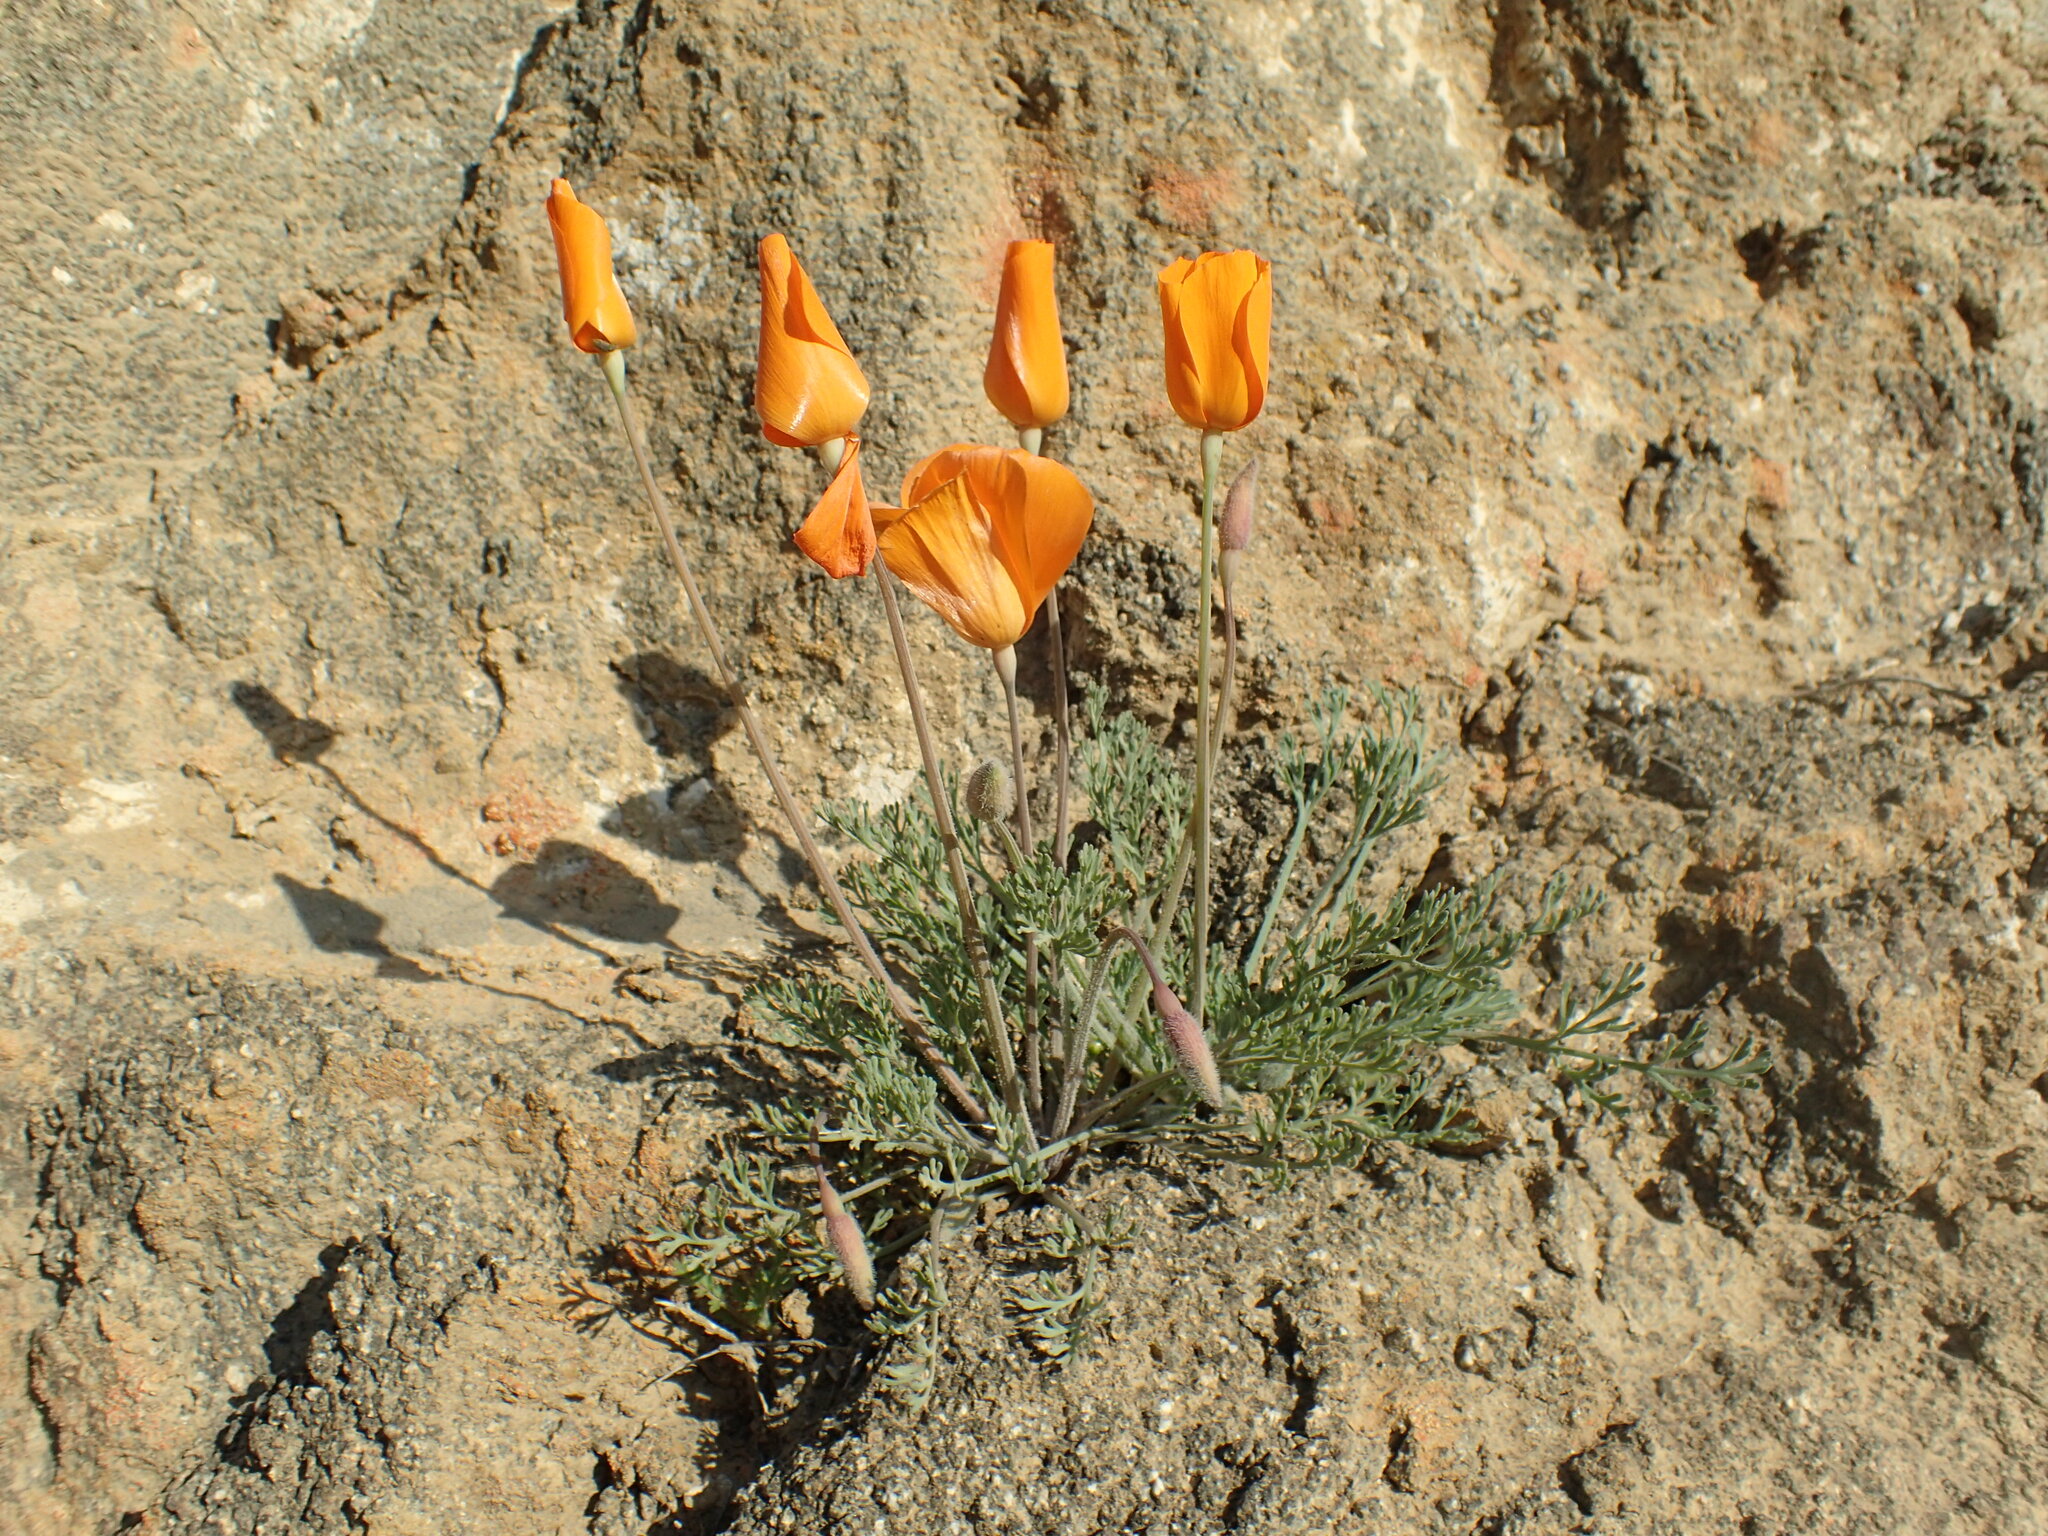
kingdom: Plantae
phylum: Tracheophyta
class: Magnoliopsida
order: Ranunculales
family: Papaveraceae
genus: Eschscholzia
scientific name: Eschscholzia lemmonii
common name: Lemmon's poppy
